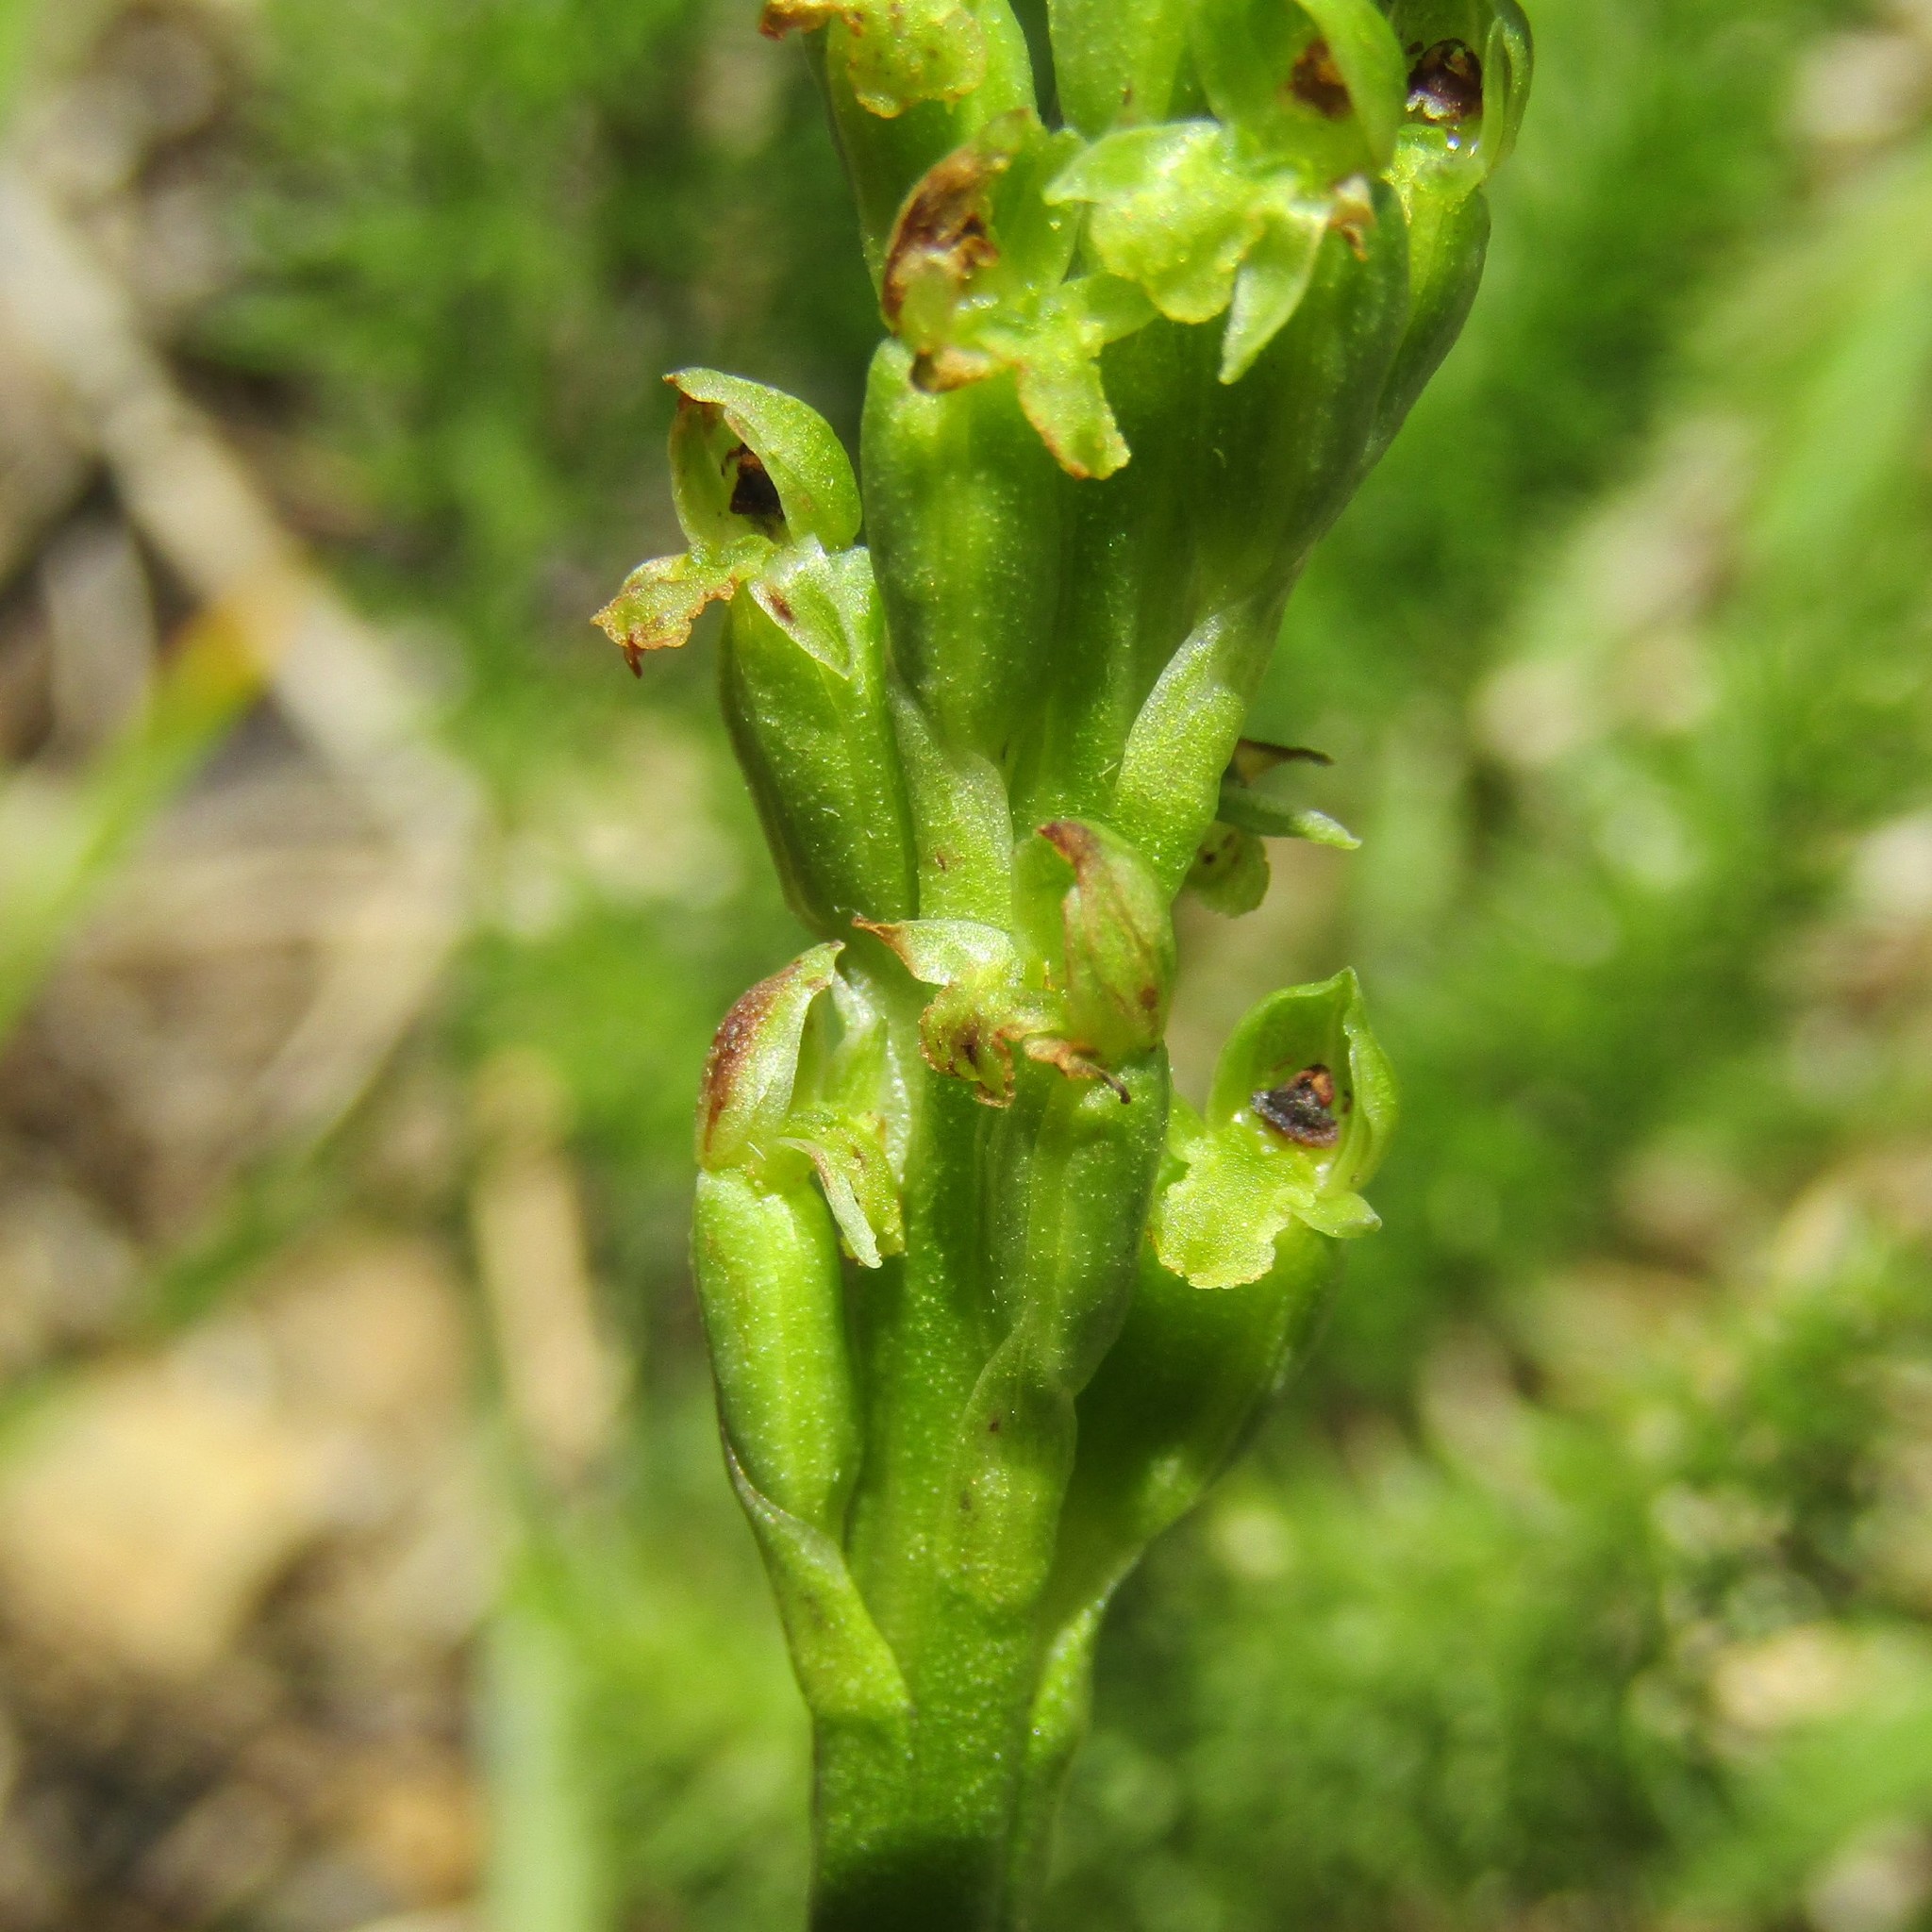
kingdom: Plantae
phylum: Tracheophyta
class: Liliopsida
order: Asparagales
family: Orchidaceae
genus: Microtis
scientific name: Microtis unifolia
